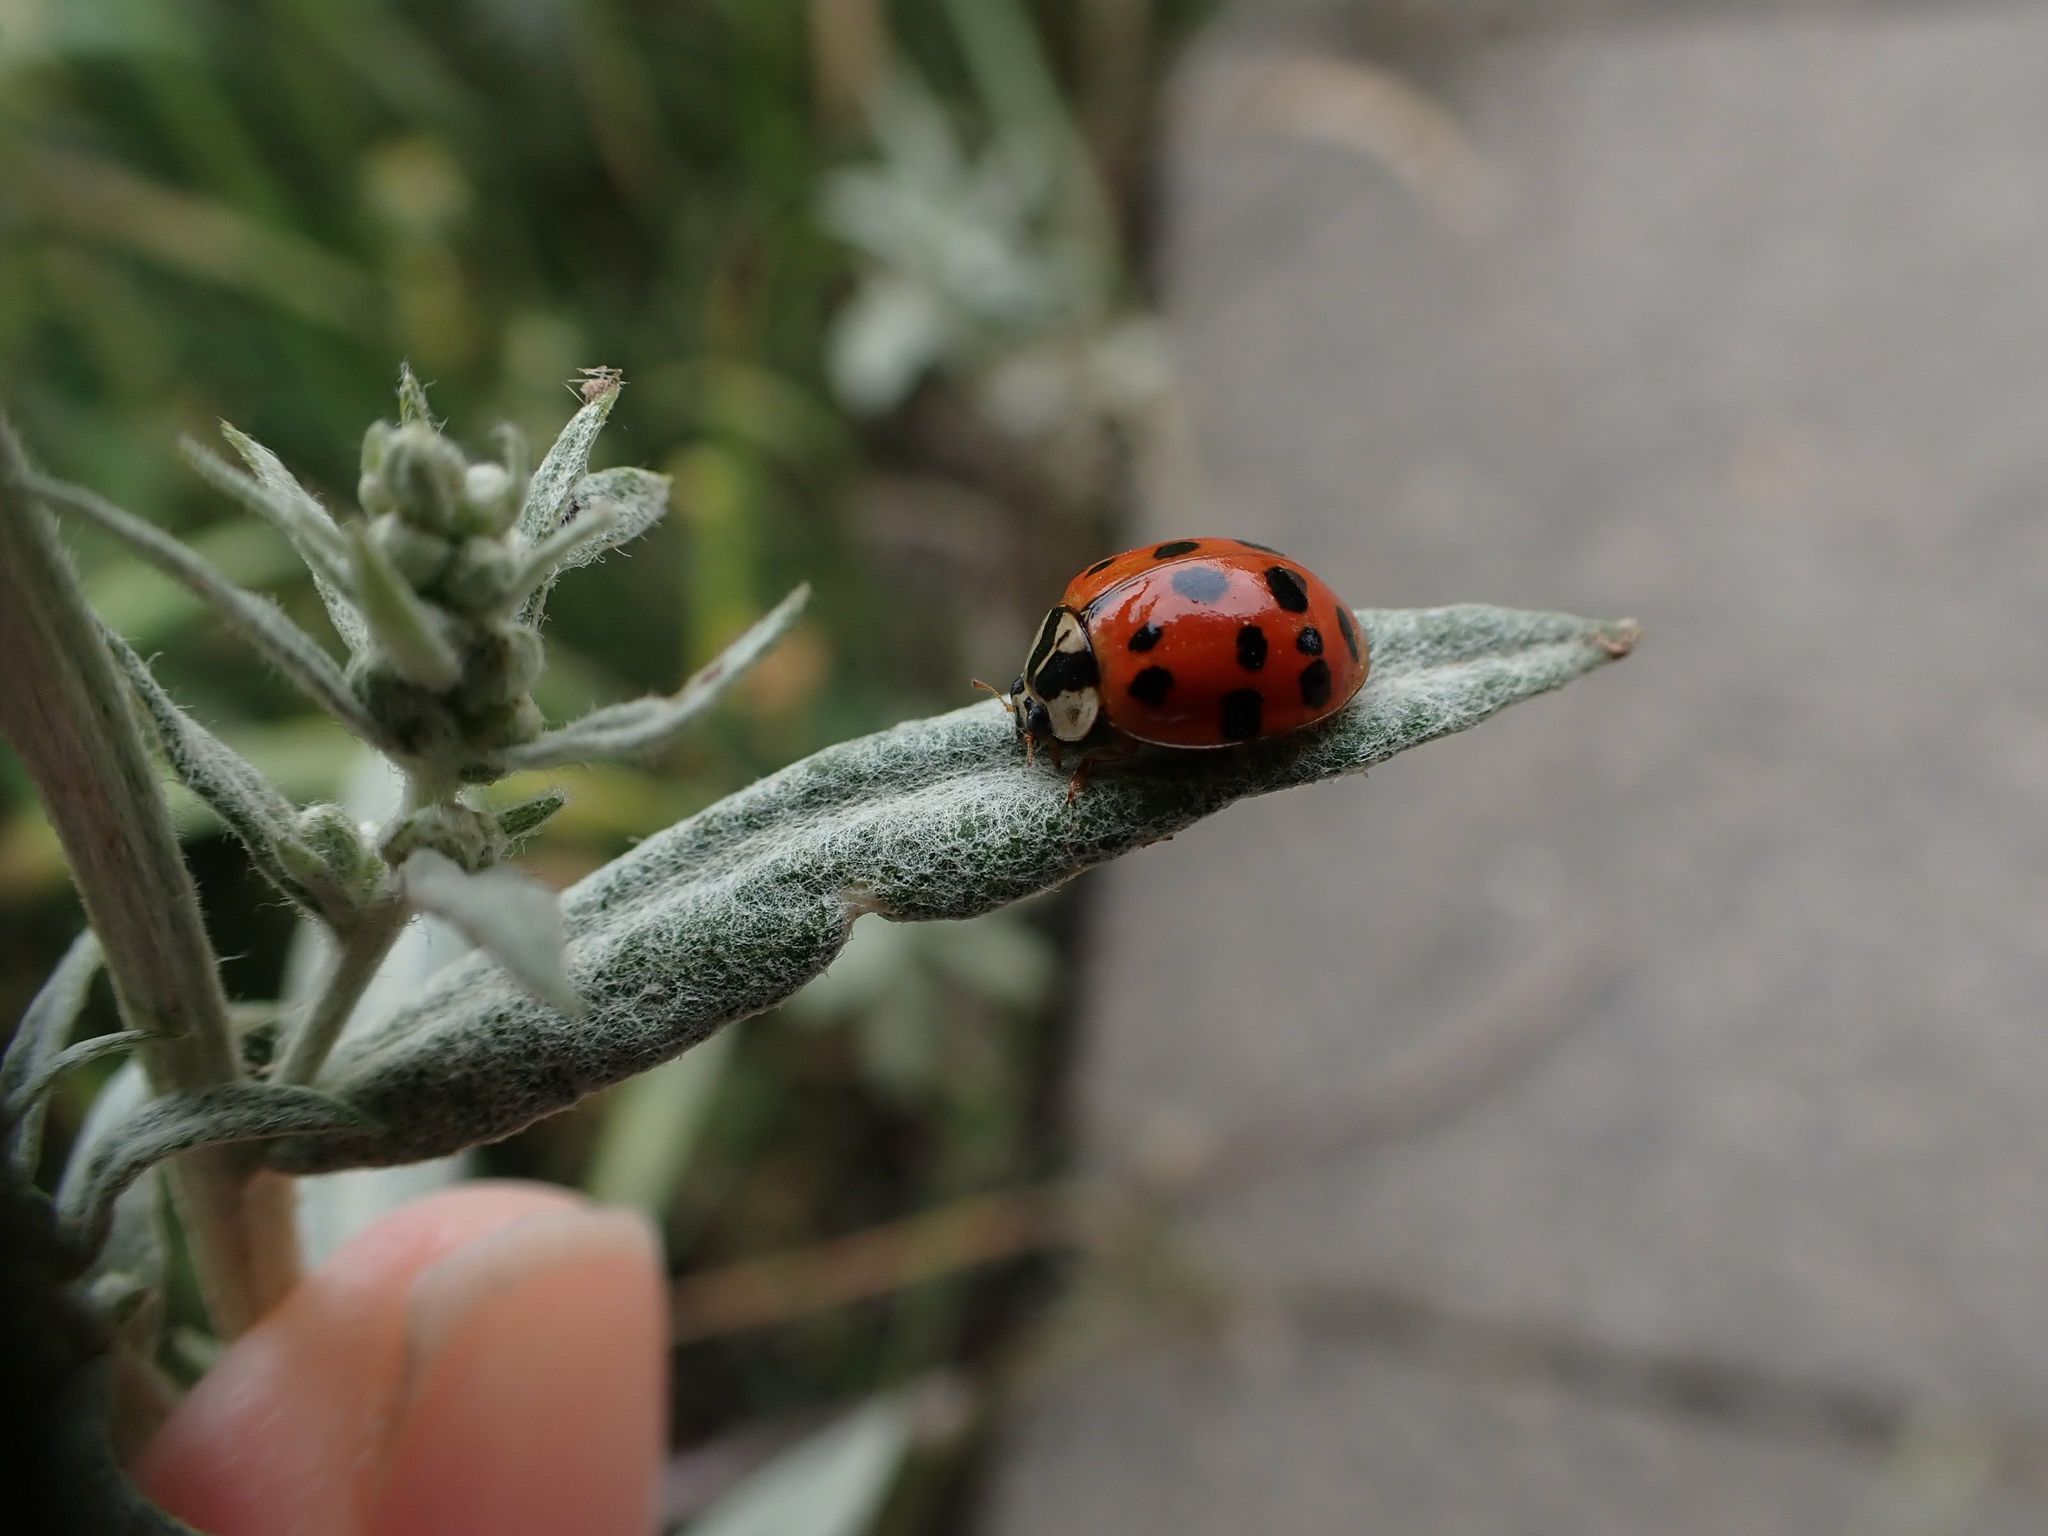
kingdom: Animalia
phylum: Arthropoda
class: Insecta
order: Coleoptera
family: Coccinellidae
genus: Harmonia
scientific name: Harmonia axyridis
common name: Harlequin ladybird
